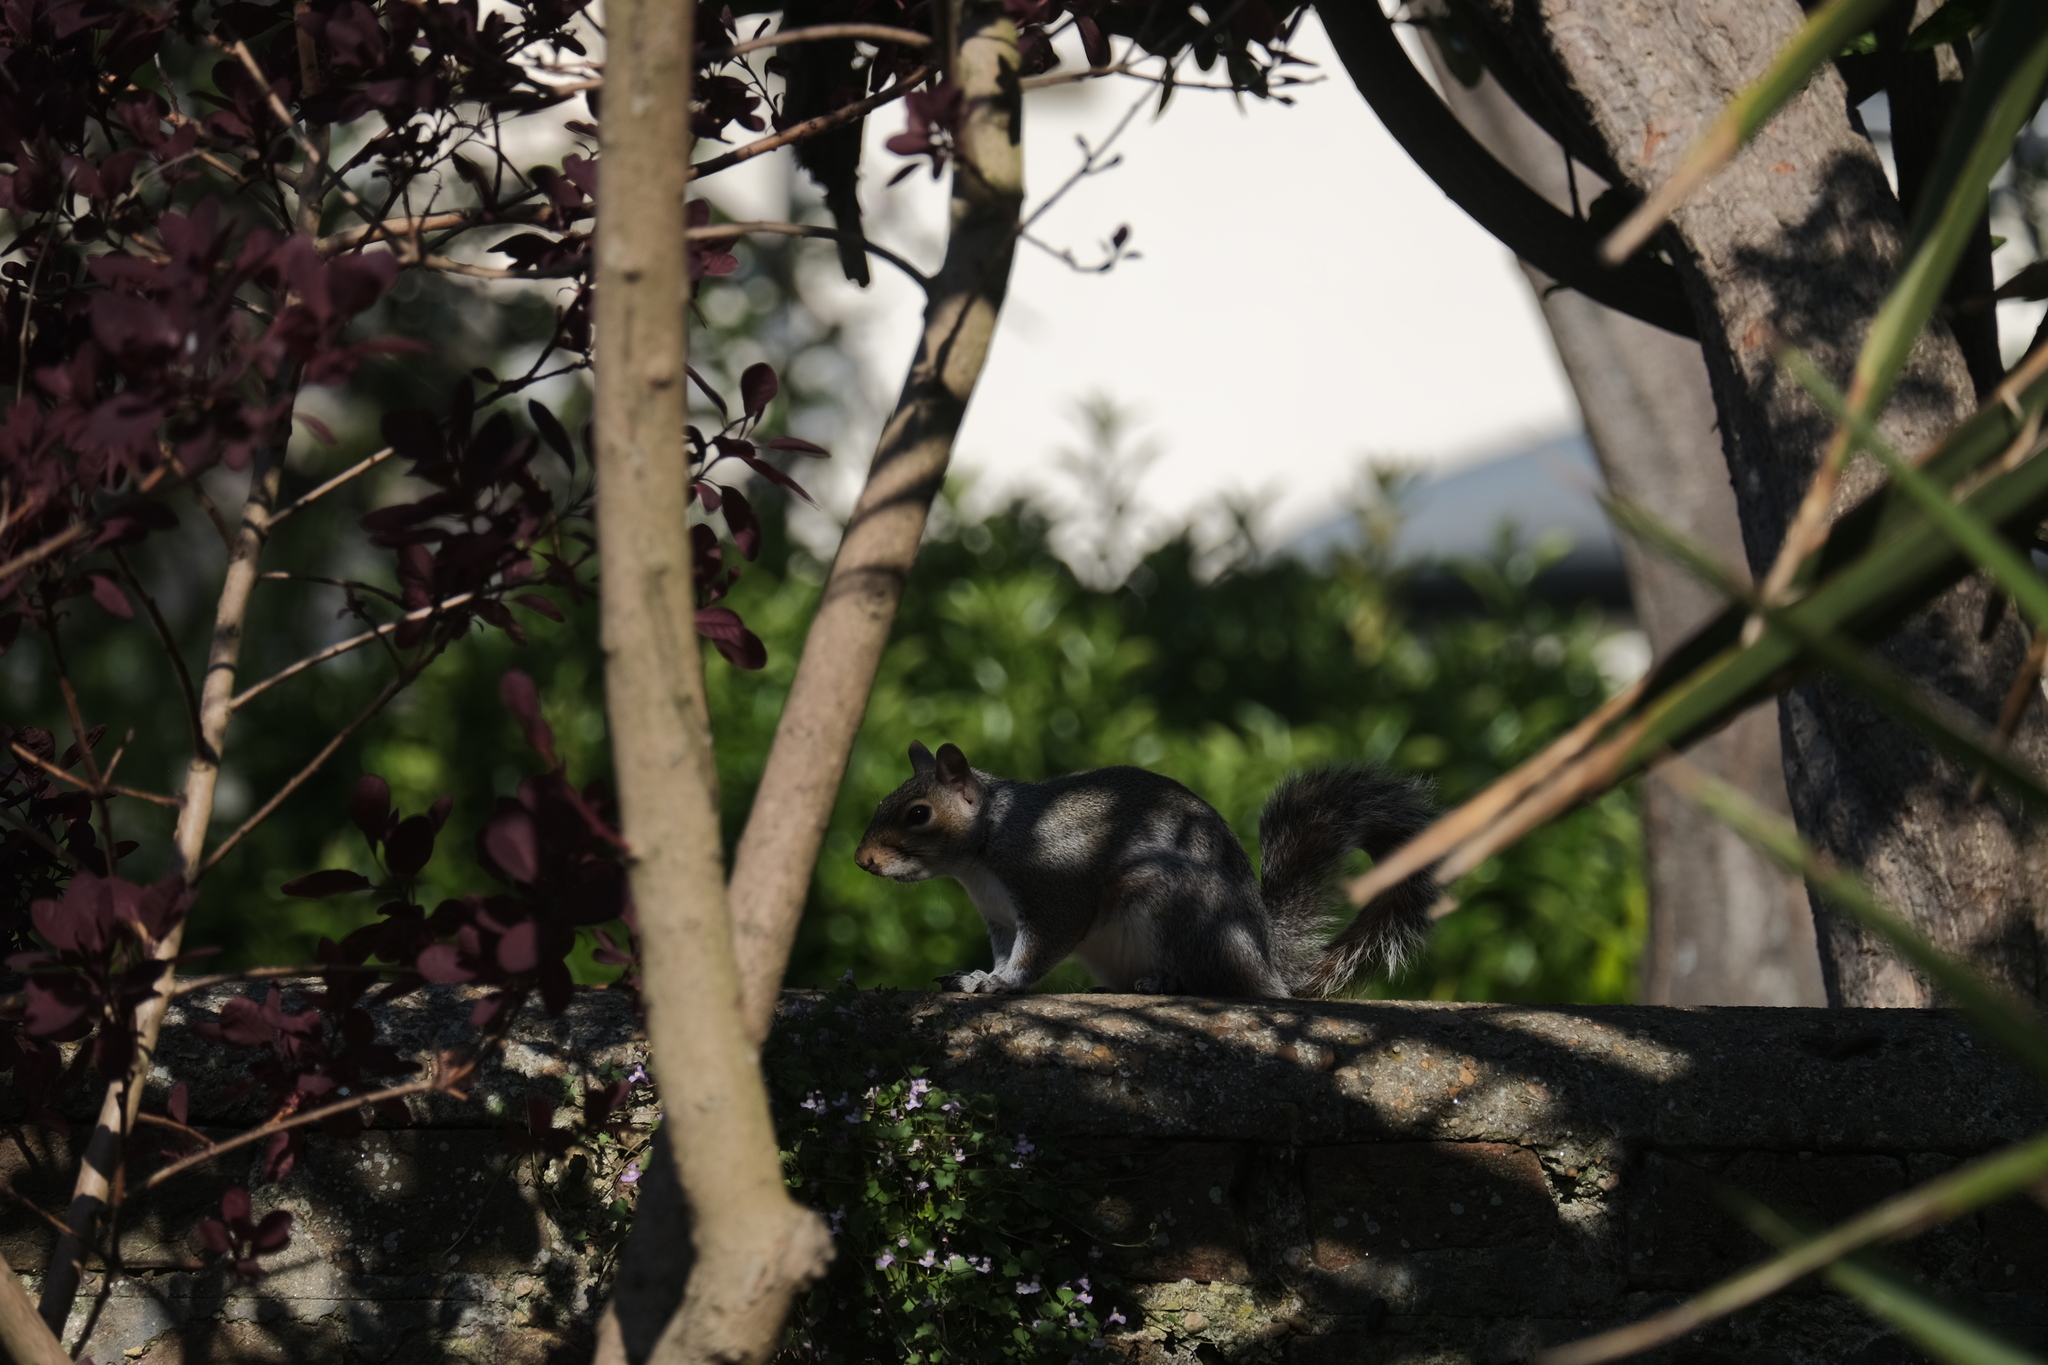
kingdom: Animalia
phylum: Chordata
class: Mammalia
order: Rodentia
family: Sciuridae
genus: Sciurus
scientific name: Sciurus carolinensis
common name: Eastern gray squirrel
